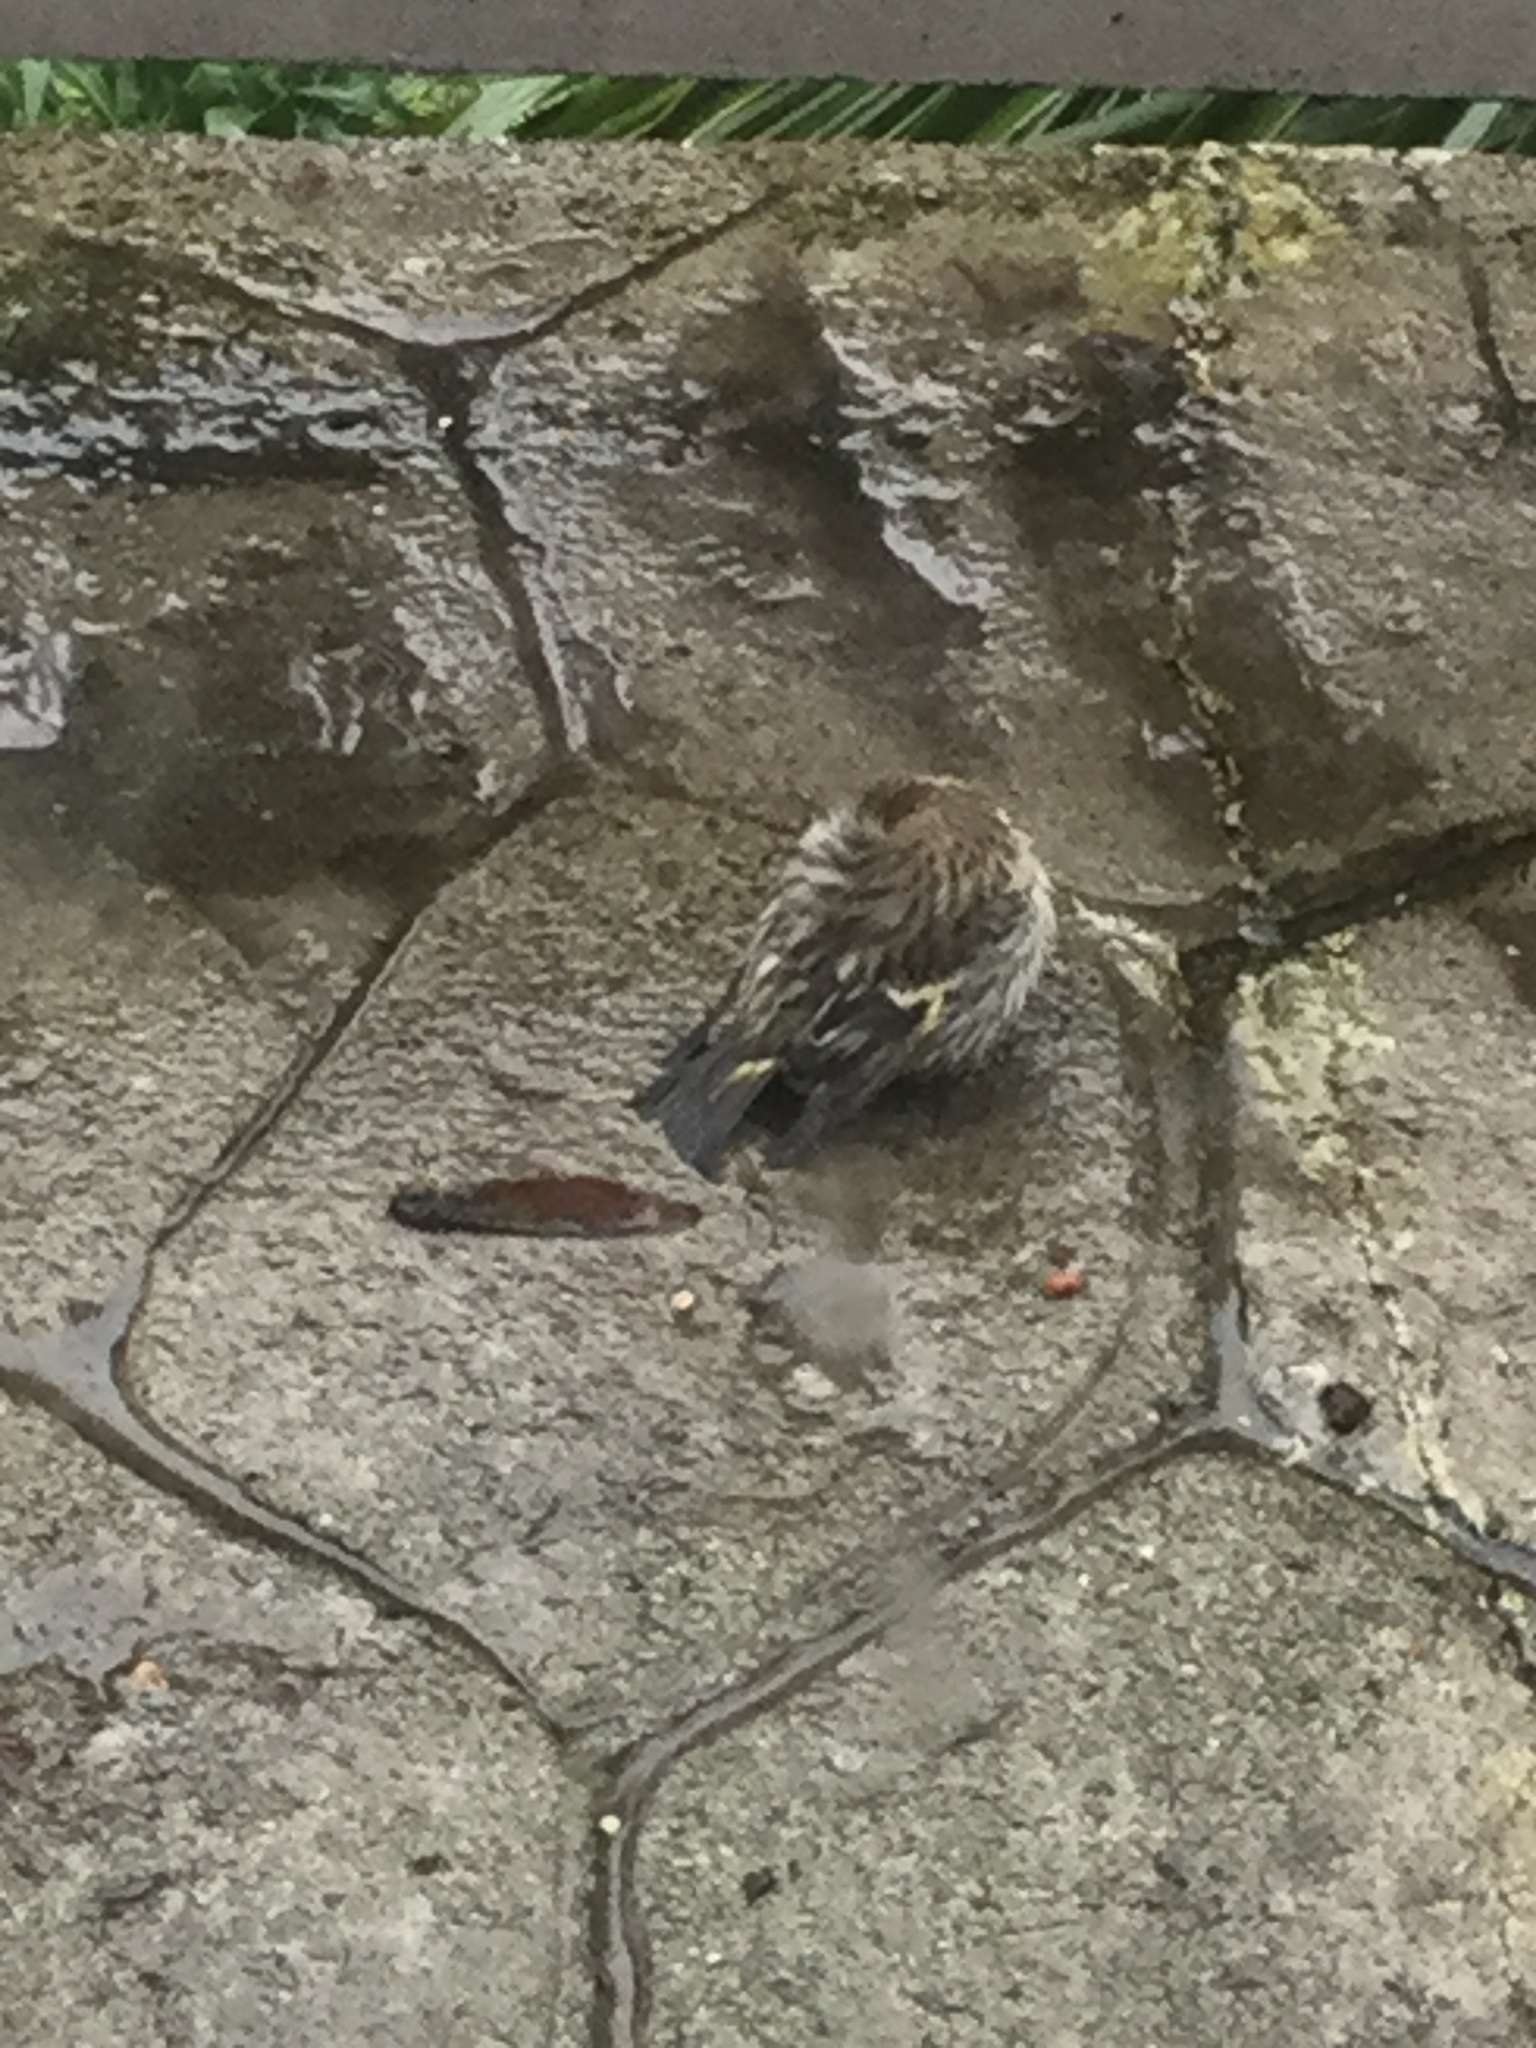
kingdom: Animalia
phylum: Chordata
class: Aves
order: Passeriformes
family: Fringillidae
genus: Spinus
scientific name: Spinus pinus
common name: Pine siskin
